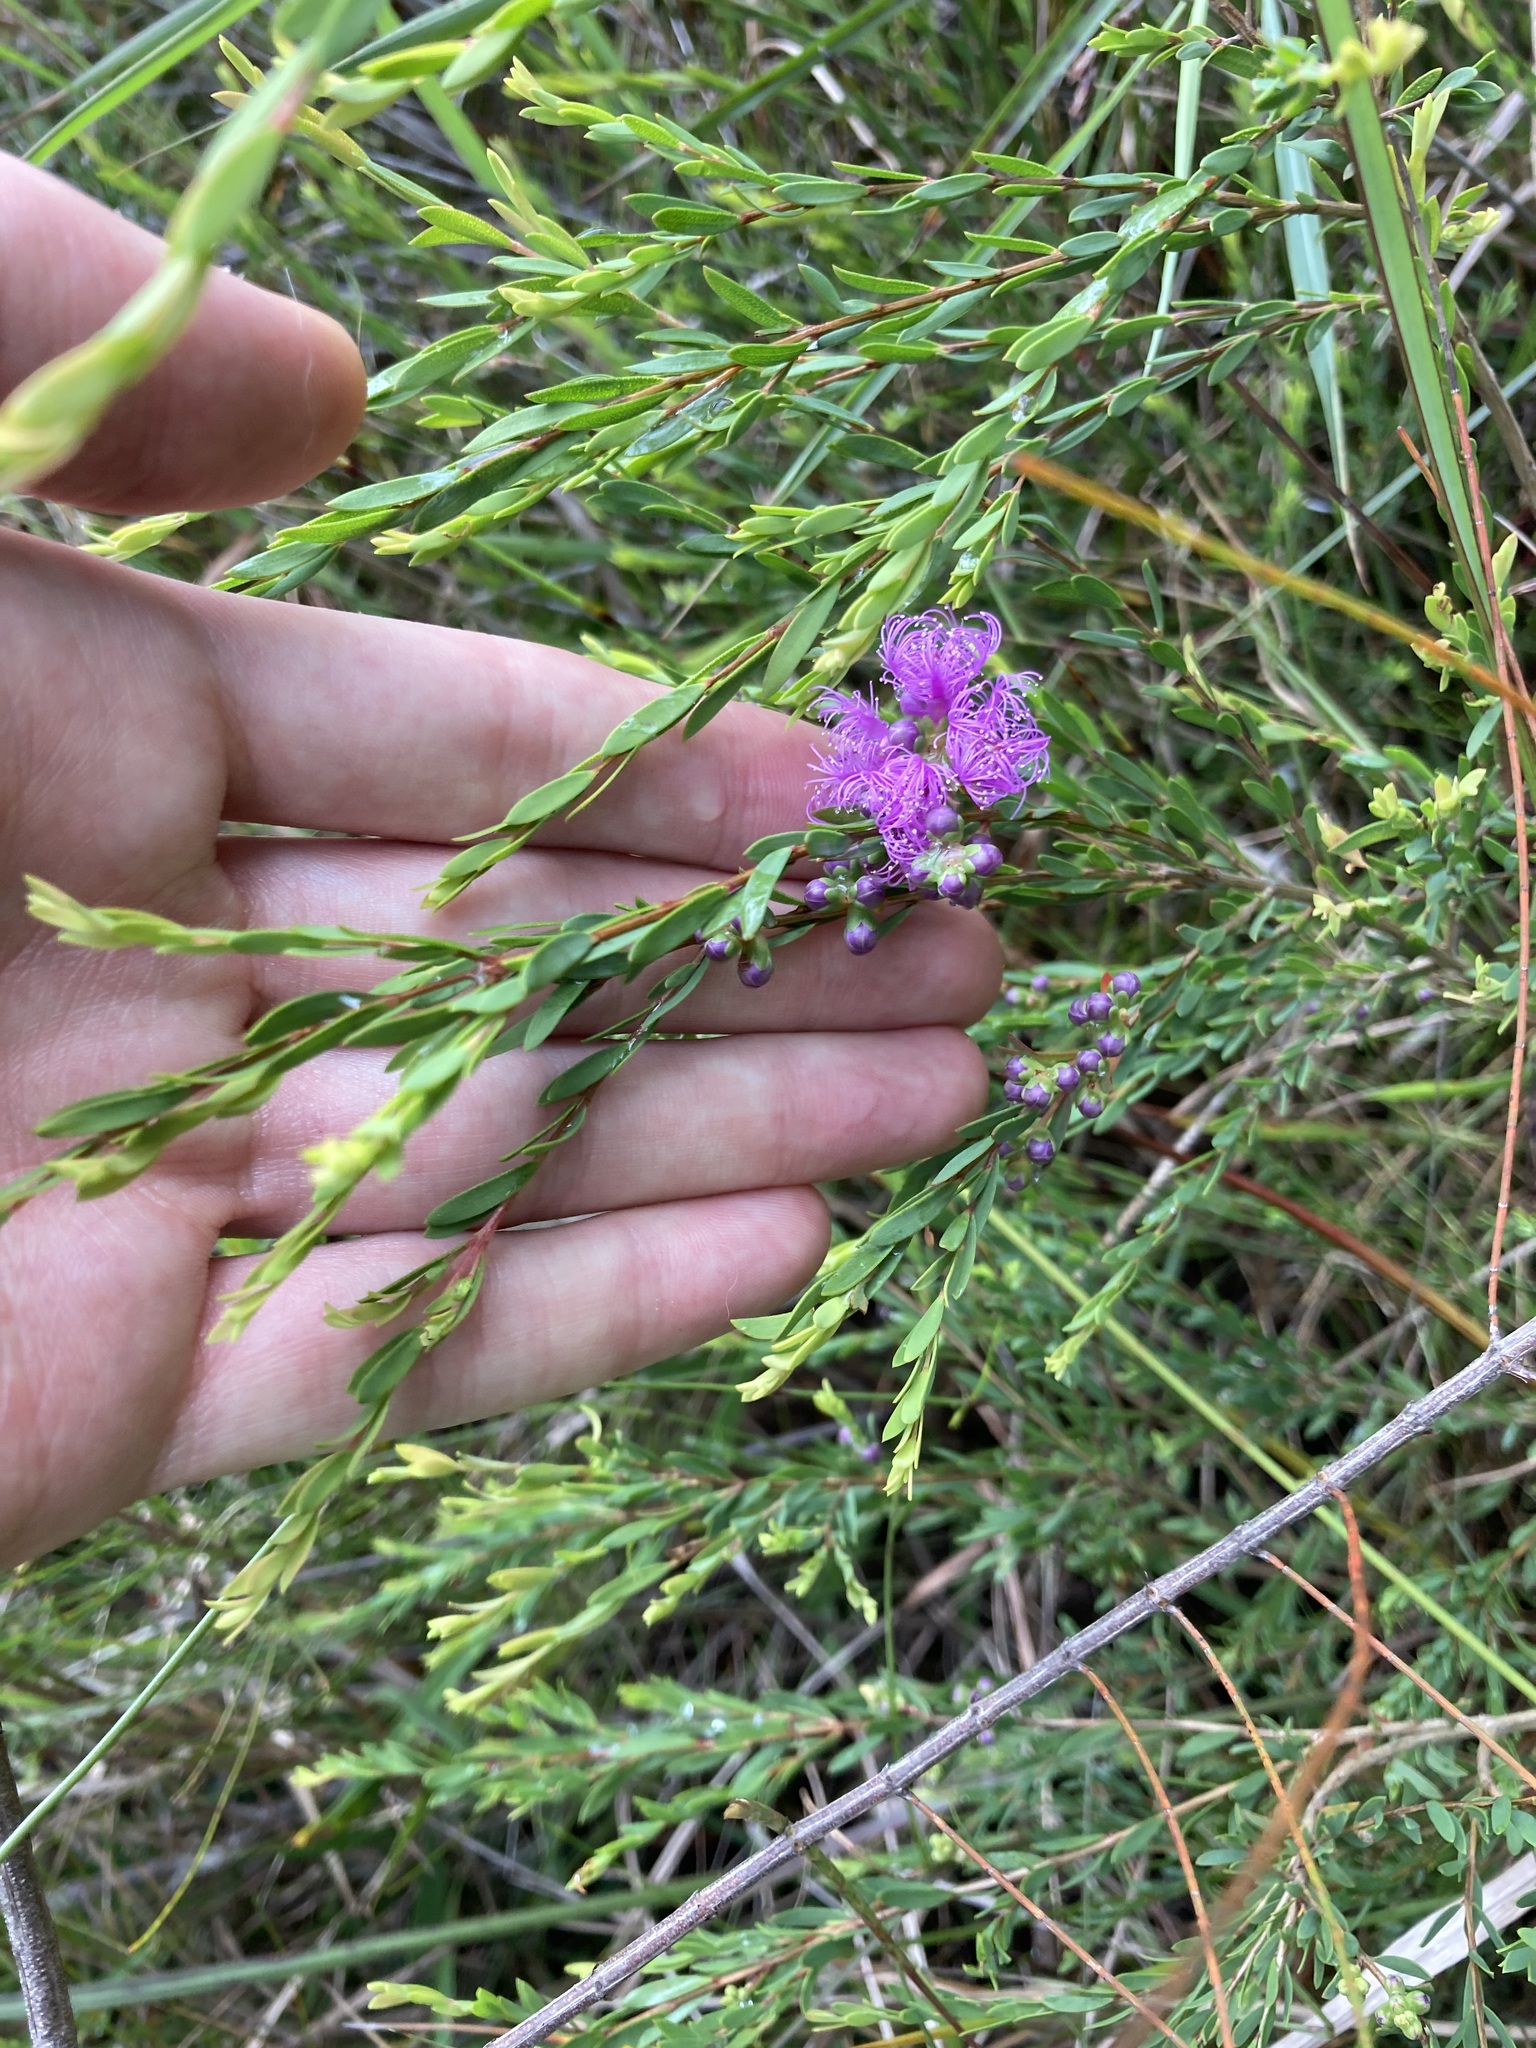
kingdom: Plantae
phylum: Tracheophyta
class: Magnoliopsida
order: Myrtales
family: Myrtaceae
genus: Melaleuca
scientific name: Melaleuca thymifolia
